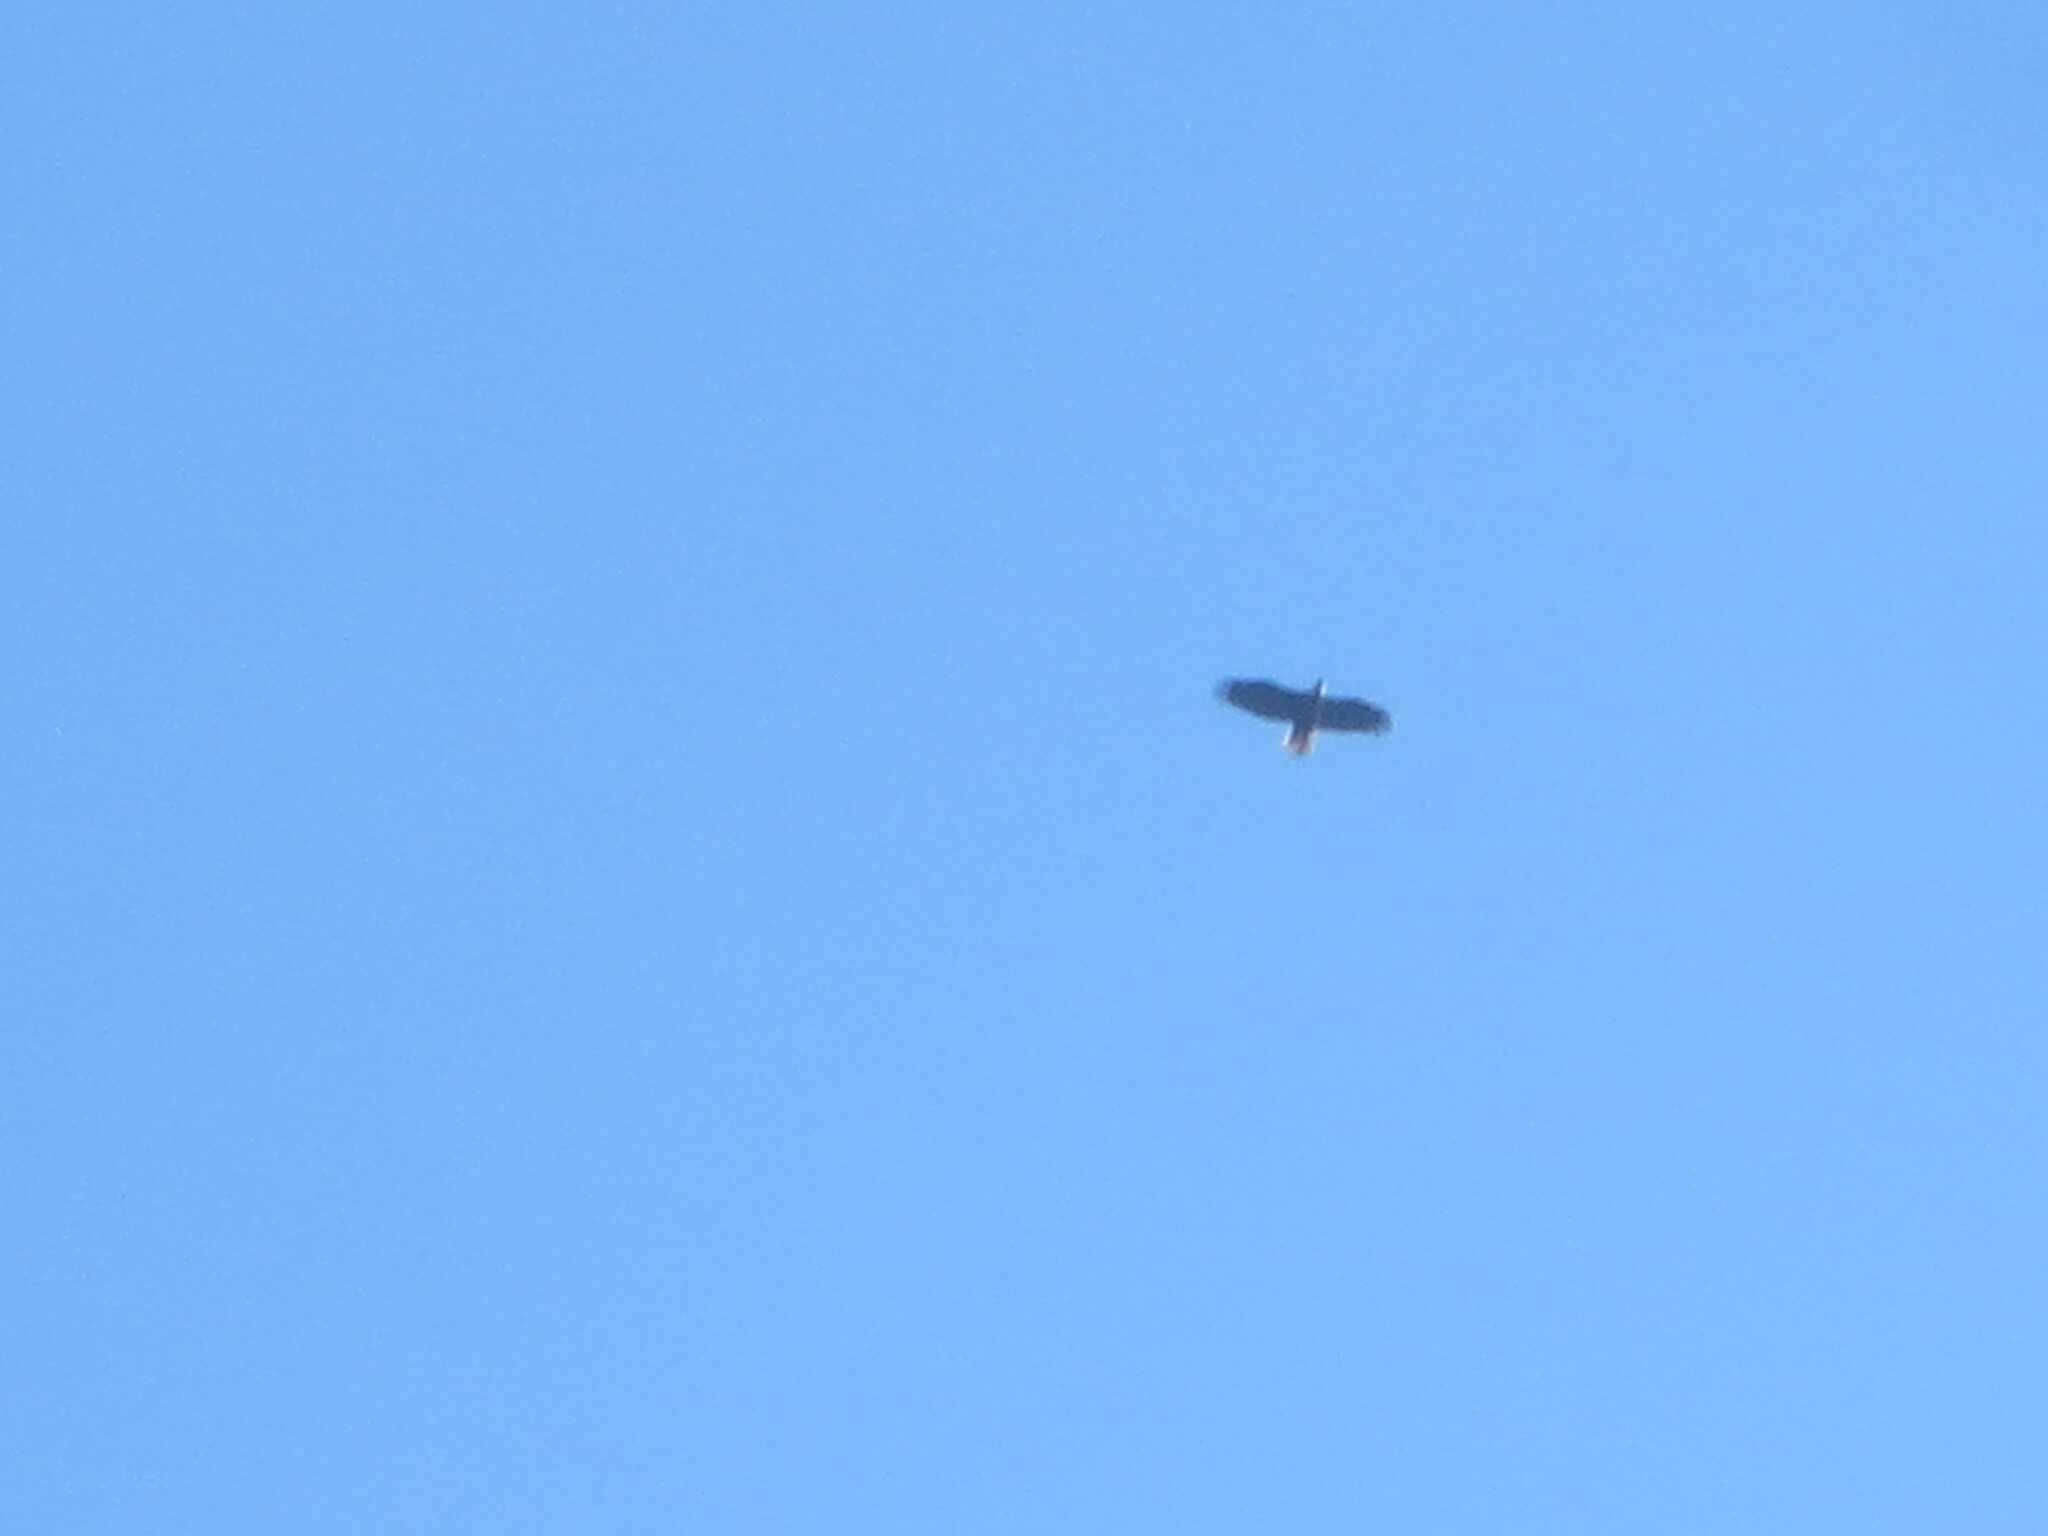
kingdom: Animalia
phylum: Chordata
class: Aves
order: Accipitriformes
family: Accipitridae
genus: Haliaeetus
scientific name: Haliaeetus leucocephalus
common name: Bald eagle
